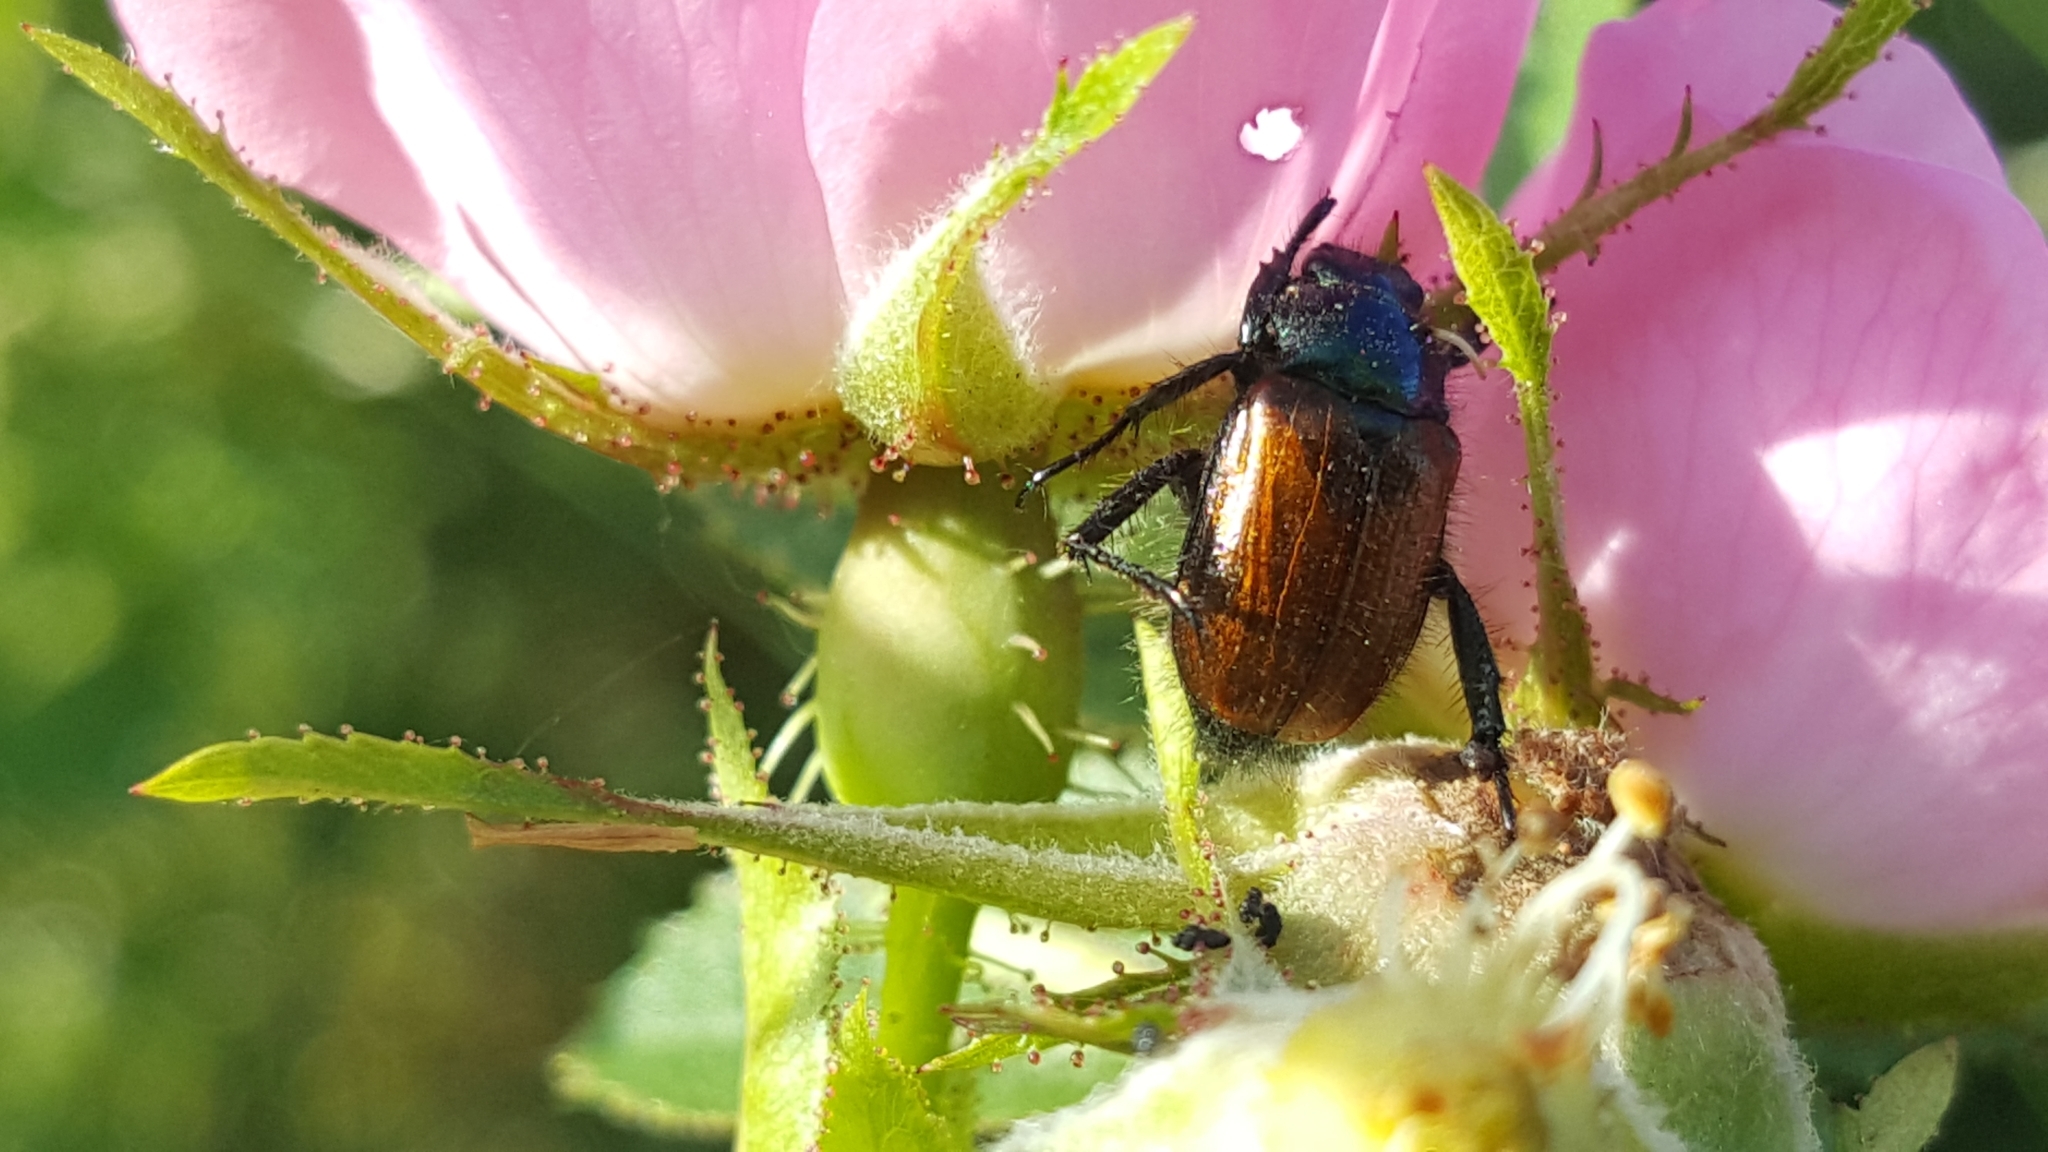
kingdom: Animalia
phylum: Arthropoda
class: Insecta
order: Coleoptera
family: Scarabaeidae
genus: Phyllopertha
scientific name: Phyllopertha horticola
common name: Garden chafer
